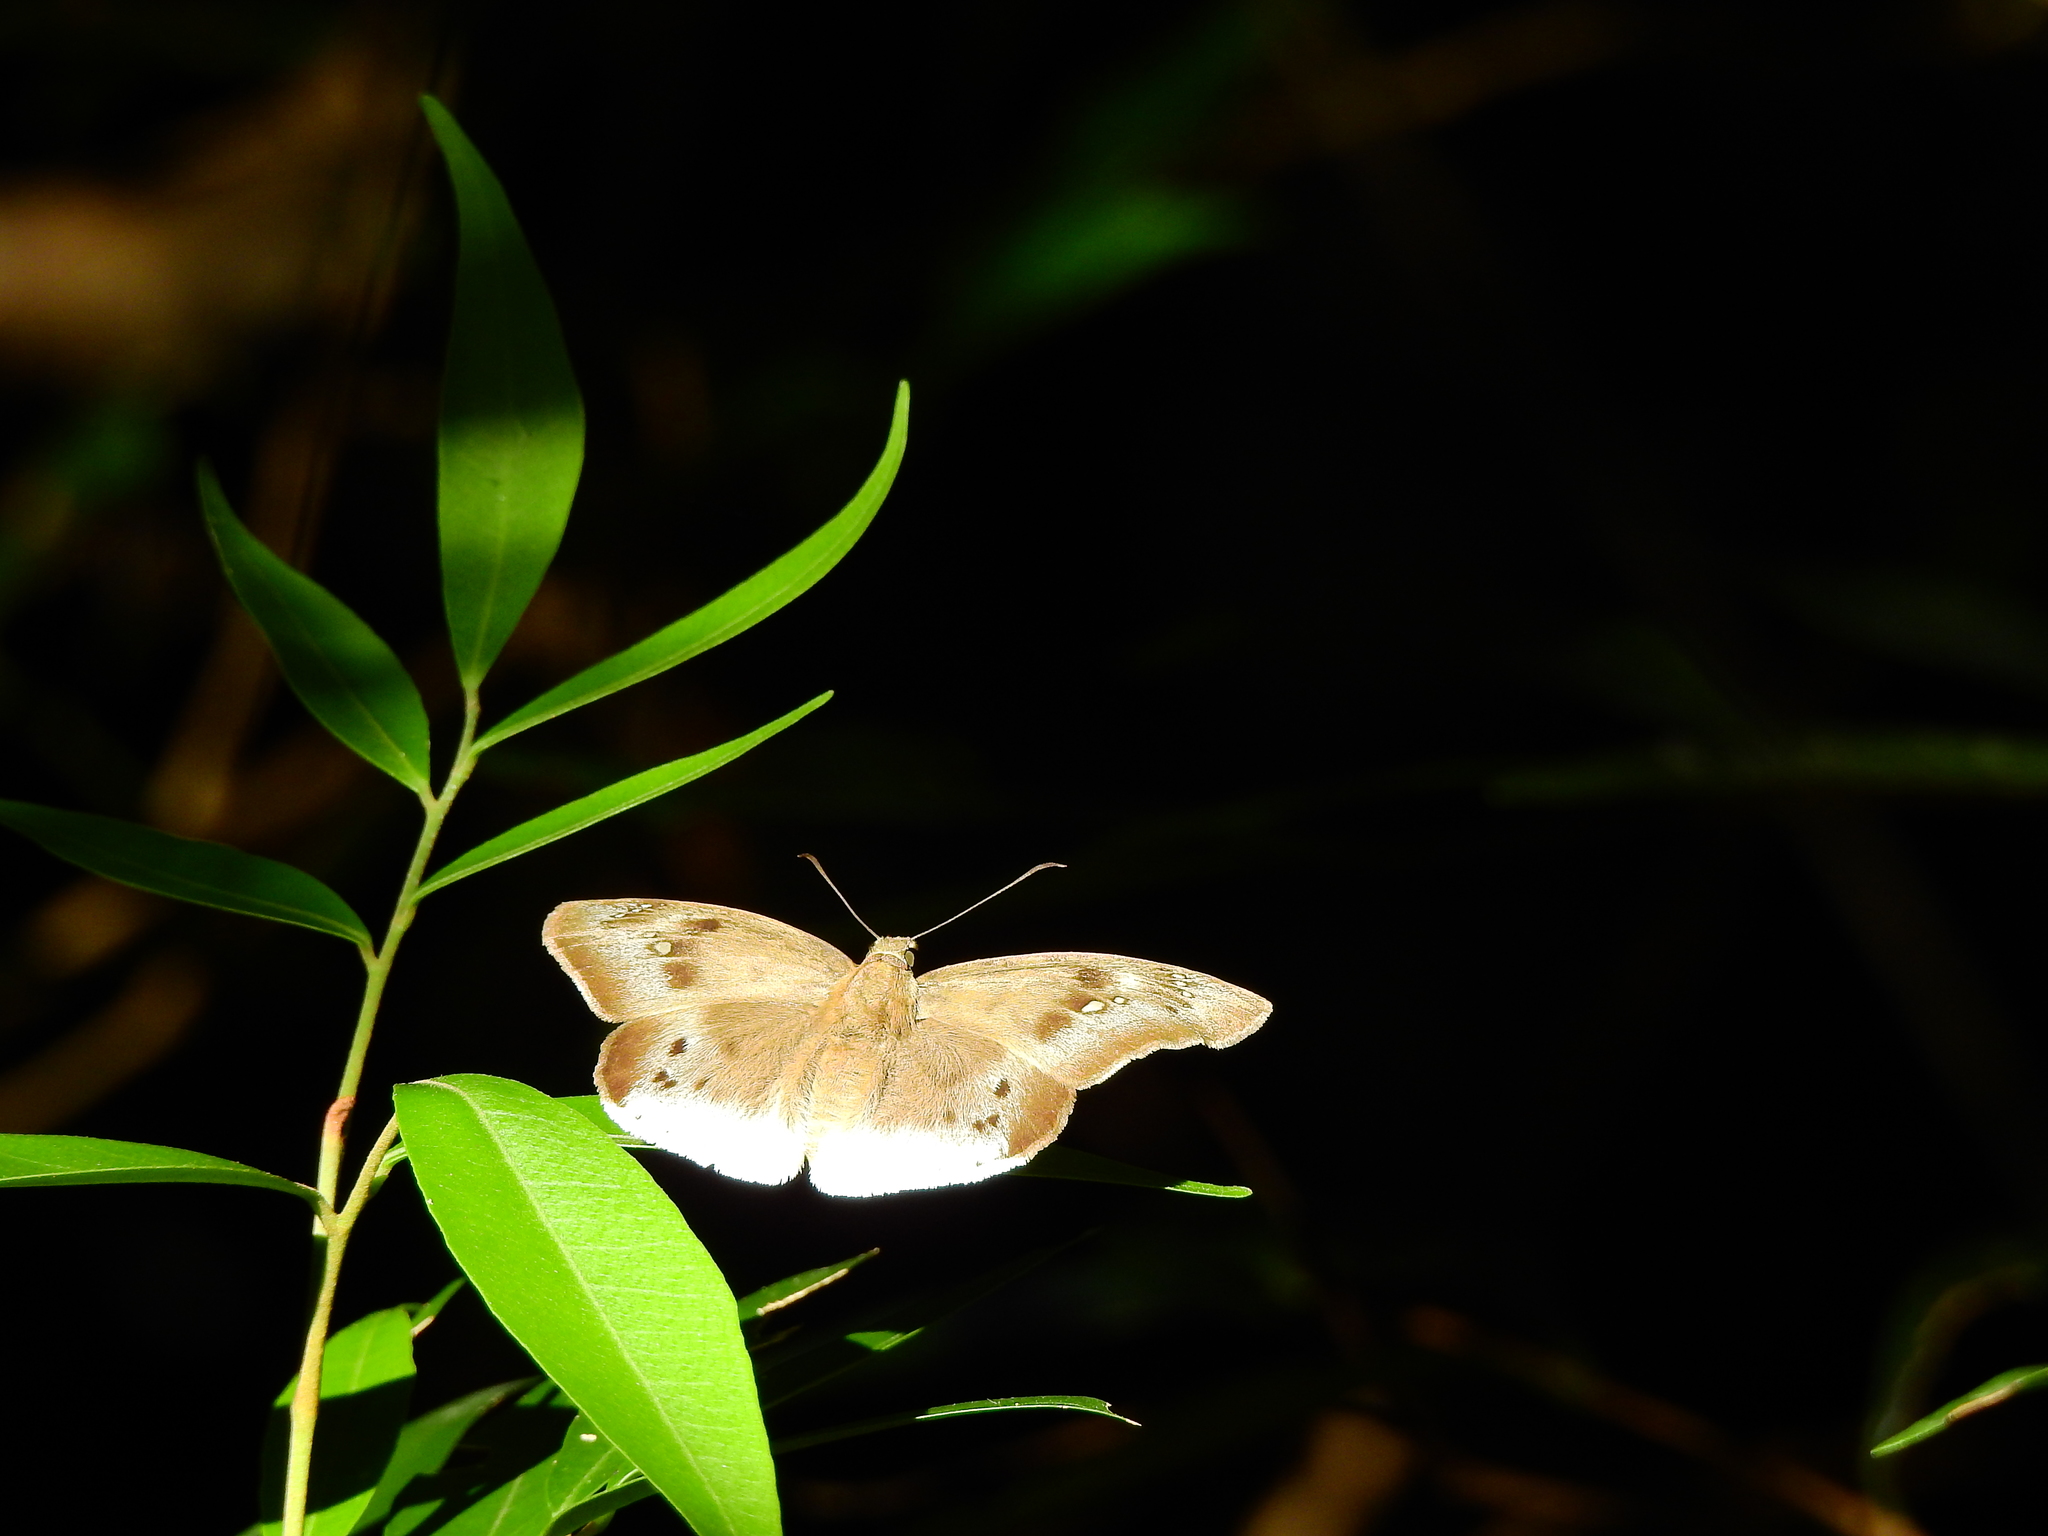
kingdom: Animalia
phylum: Arthropoda
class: Insecta
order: Lepidoptera
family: Hesperiidae
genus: Tagiades
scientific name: Tagiades japetus
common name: Pied flat
